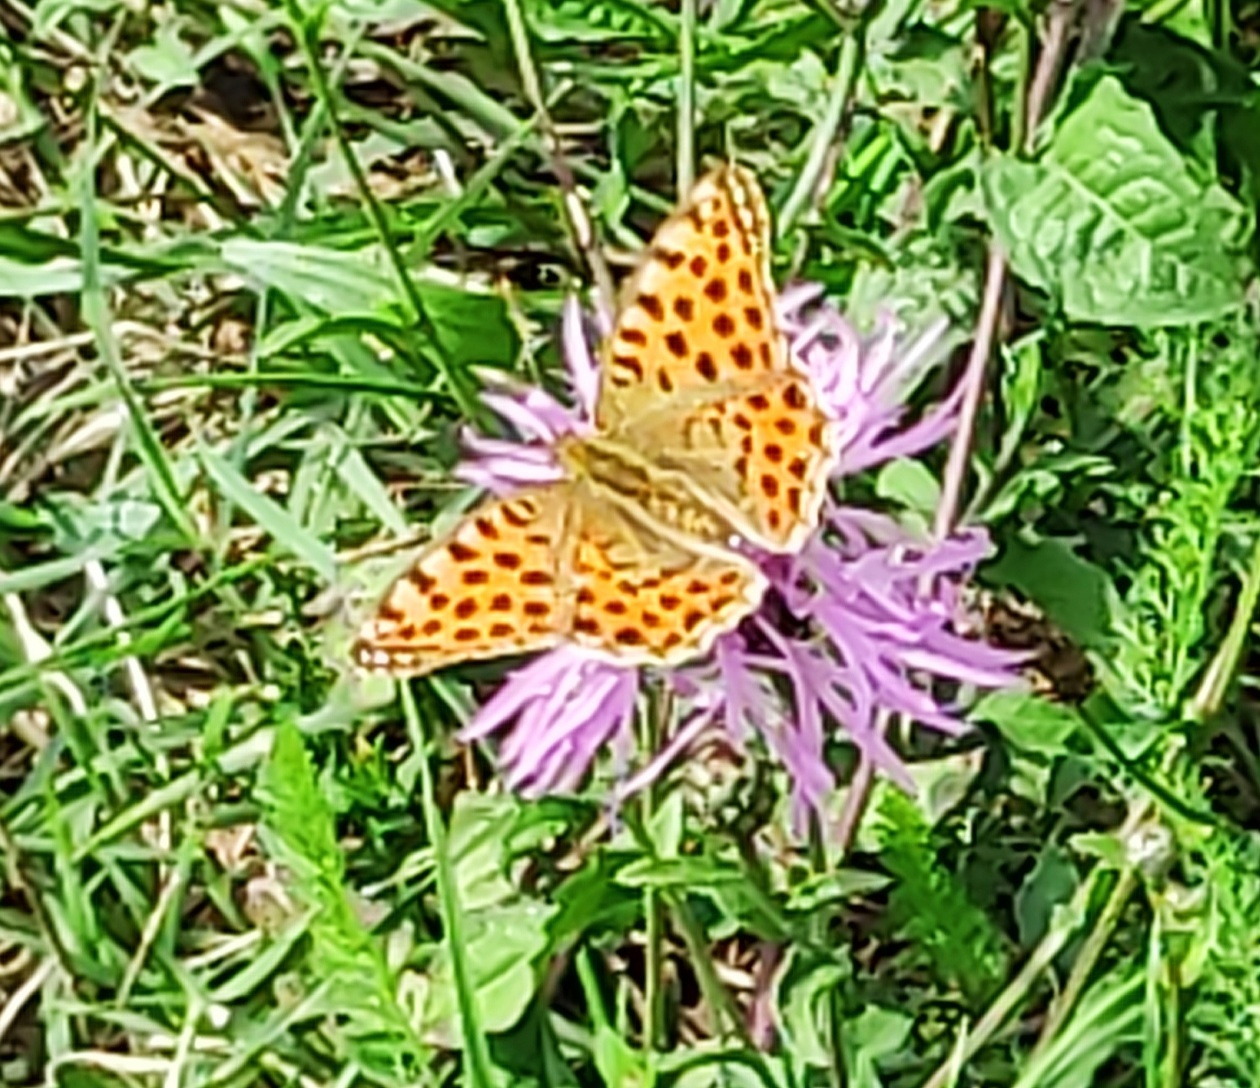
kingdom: Animalia
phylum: Arthropoda
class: Insecta
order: Lepidoptera
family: Nymphalidae
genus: Issoria
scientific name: Issoria lathonia
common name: Queen of spain fritillary
